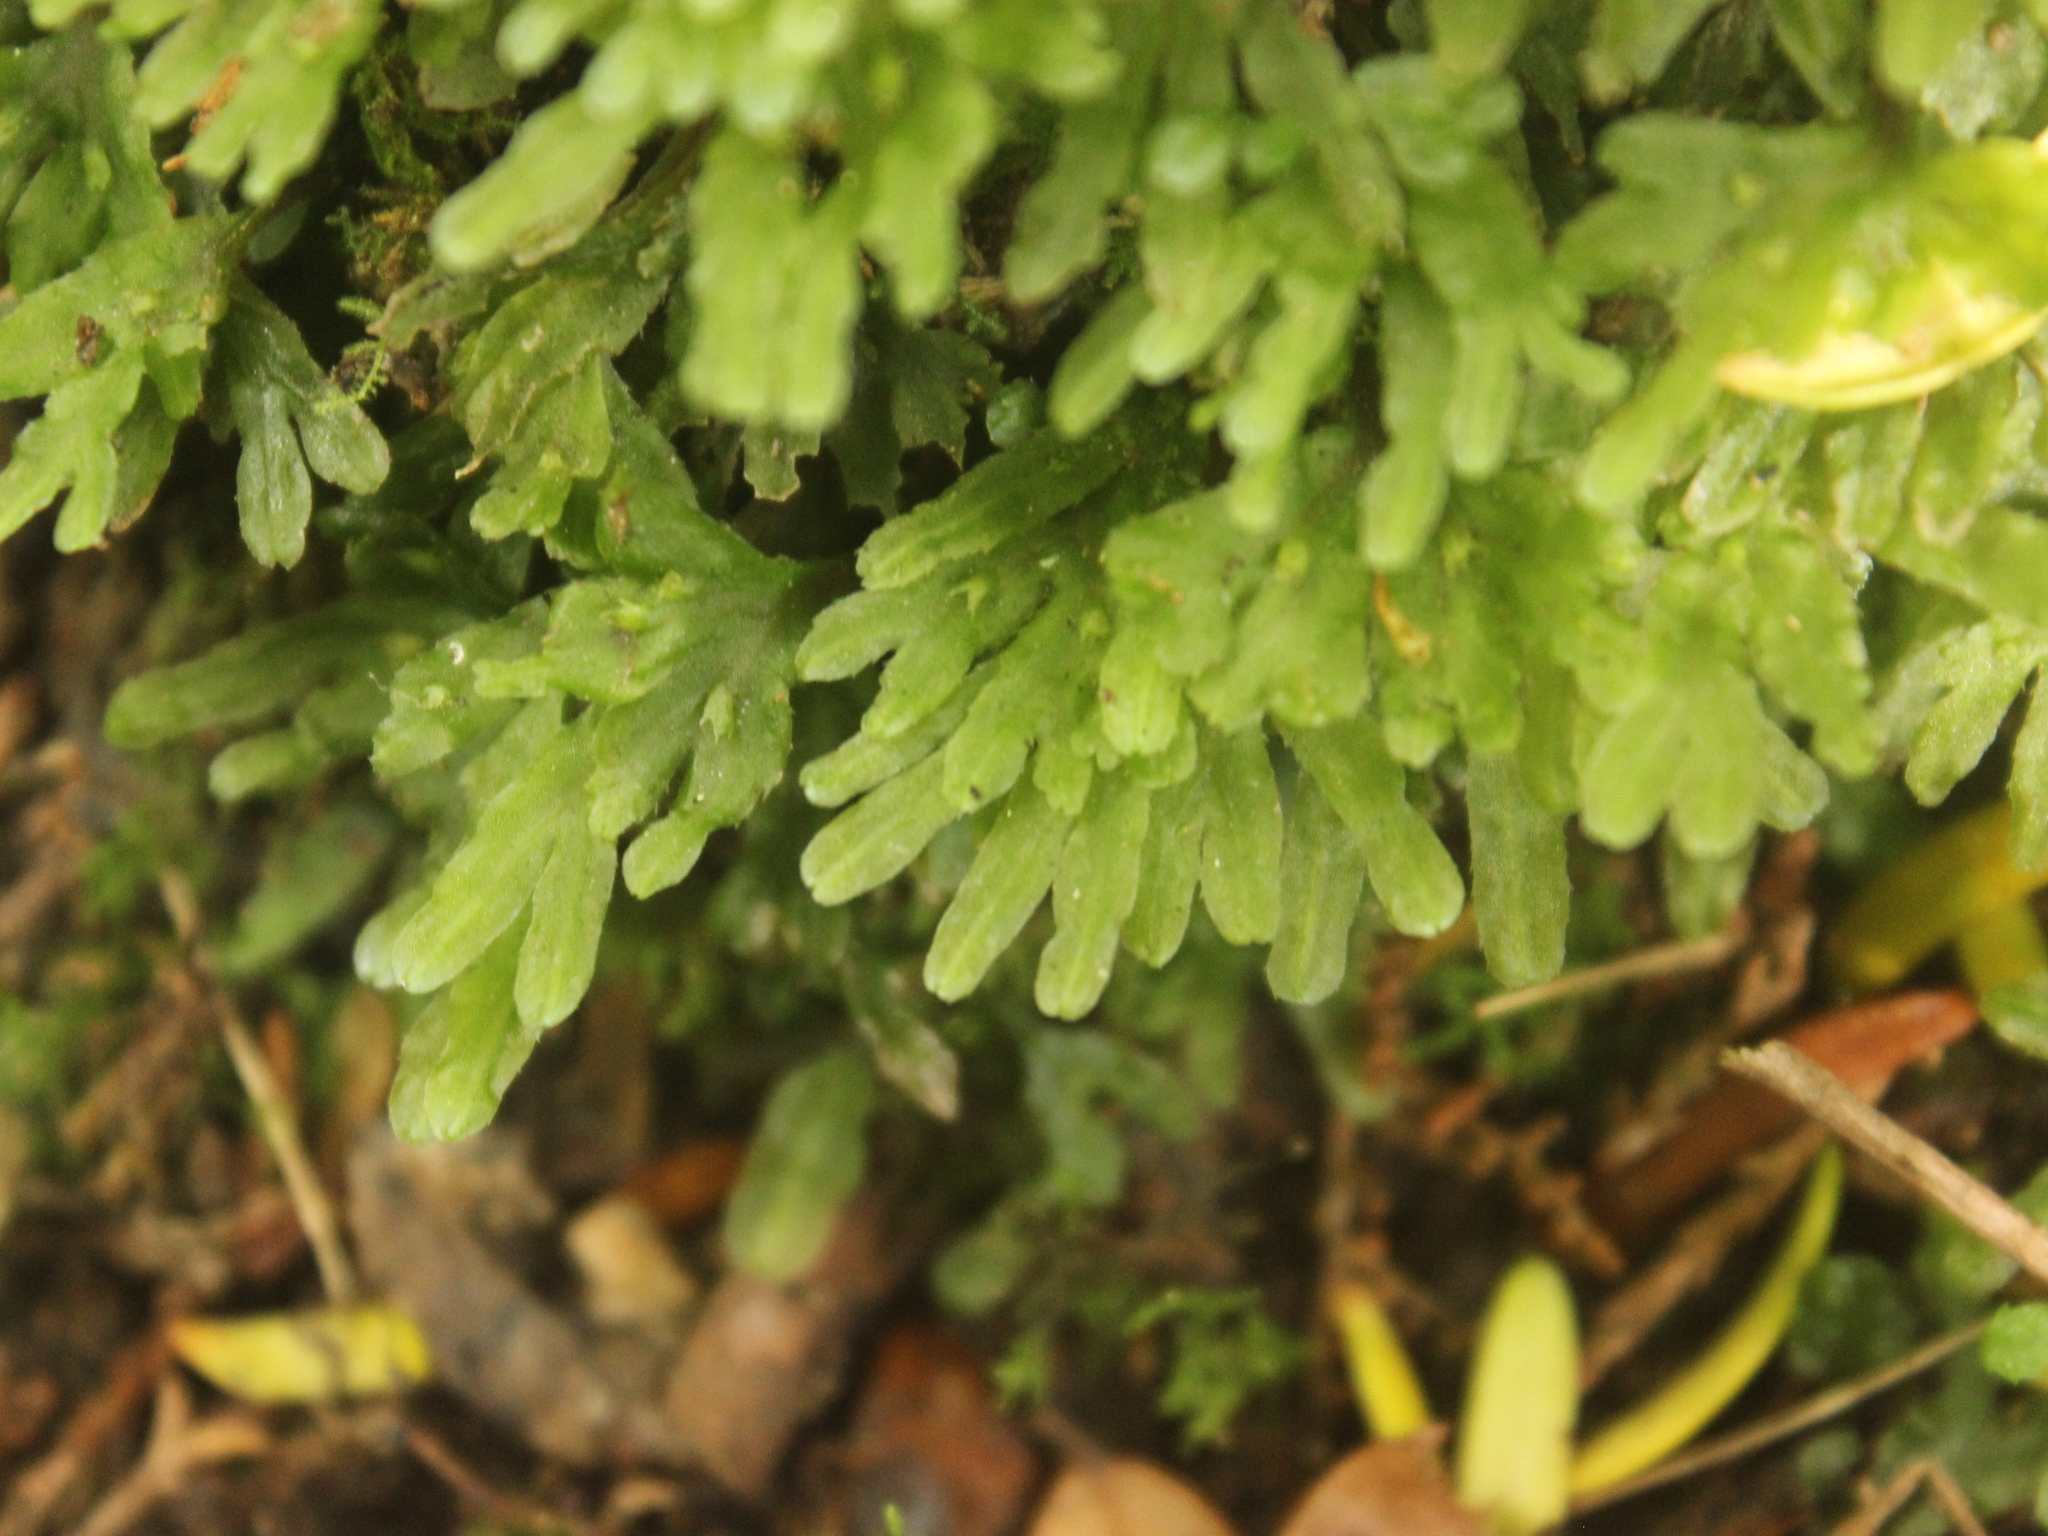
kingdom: Plantae
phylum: Marchantiophyta
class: Jungermanniopsida
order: Pallaviciniales
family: Pallaviciniaceae
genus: Symphyogyna
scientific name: Symphyogyna hymenophyllum
